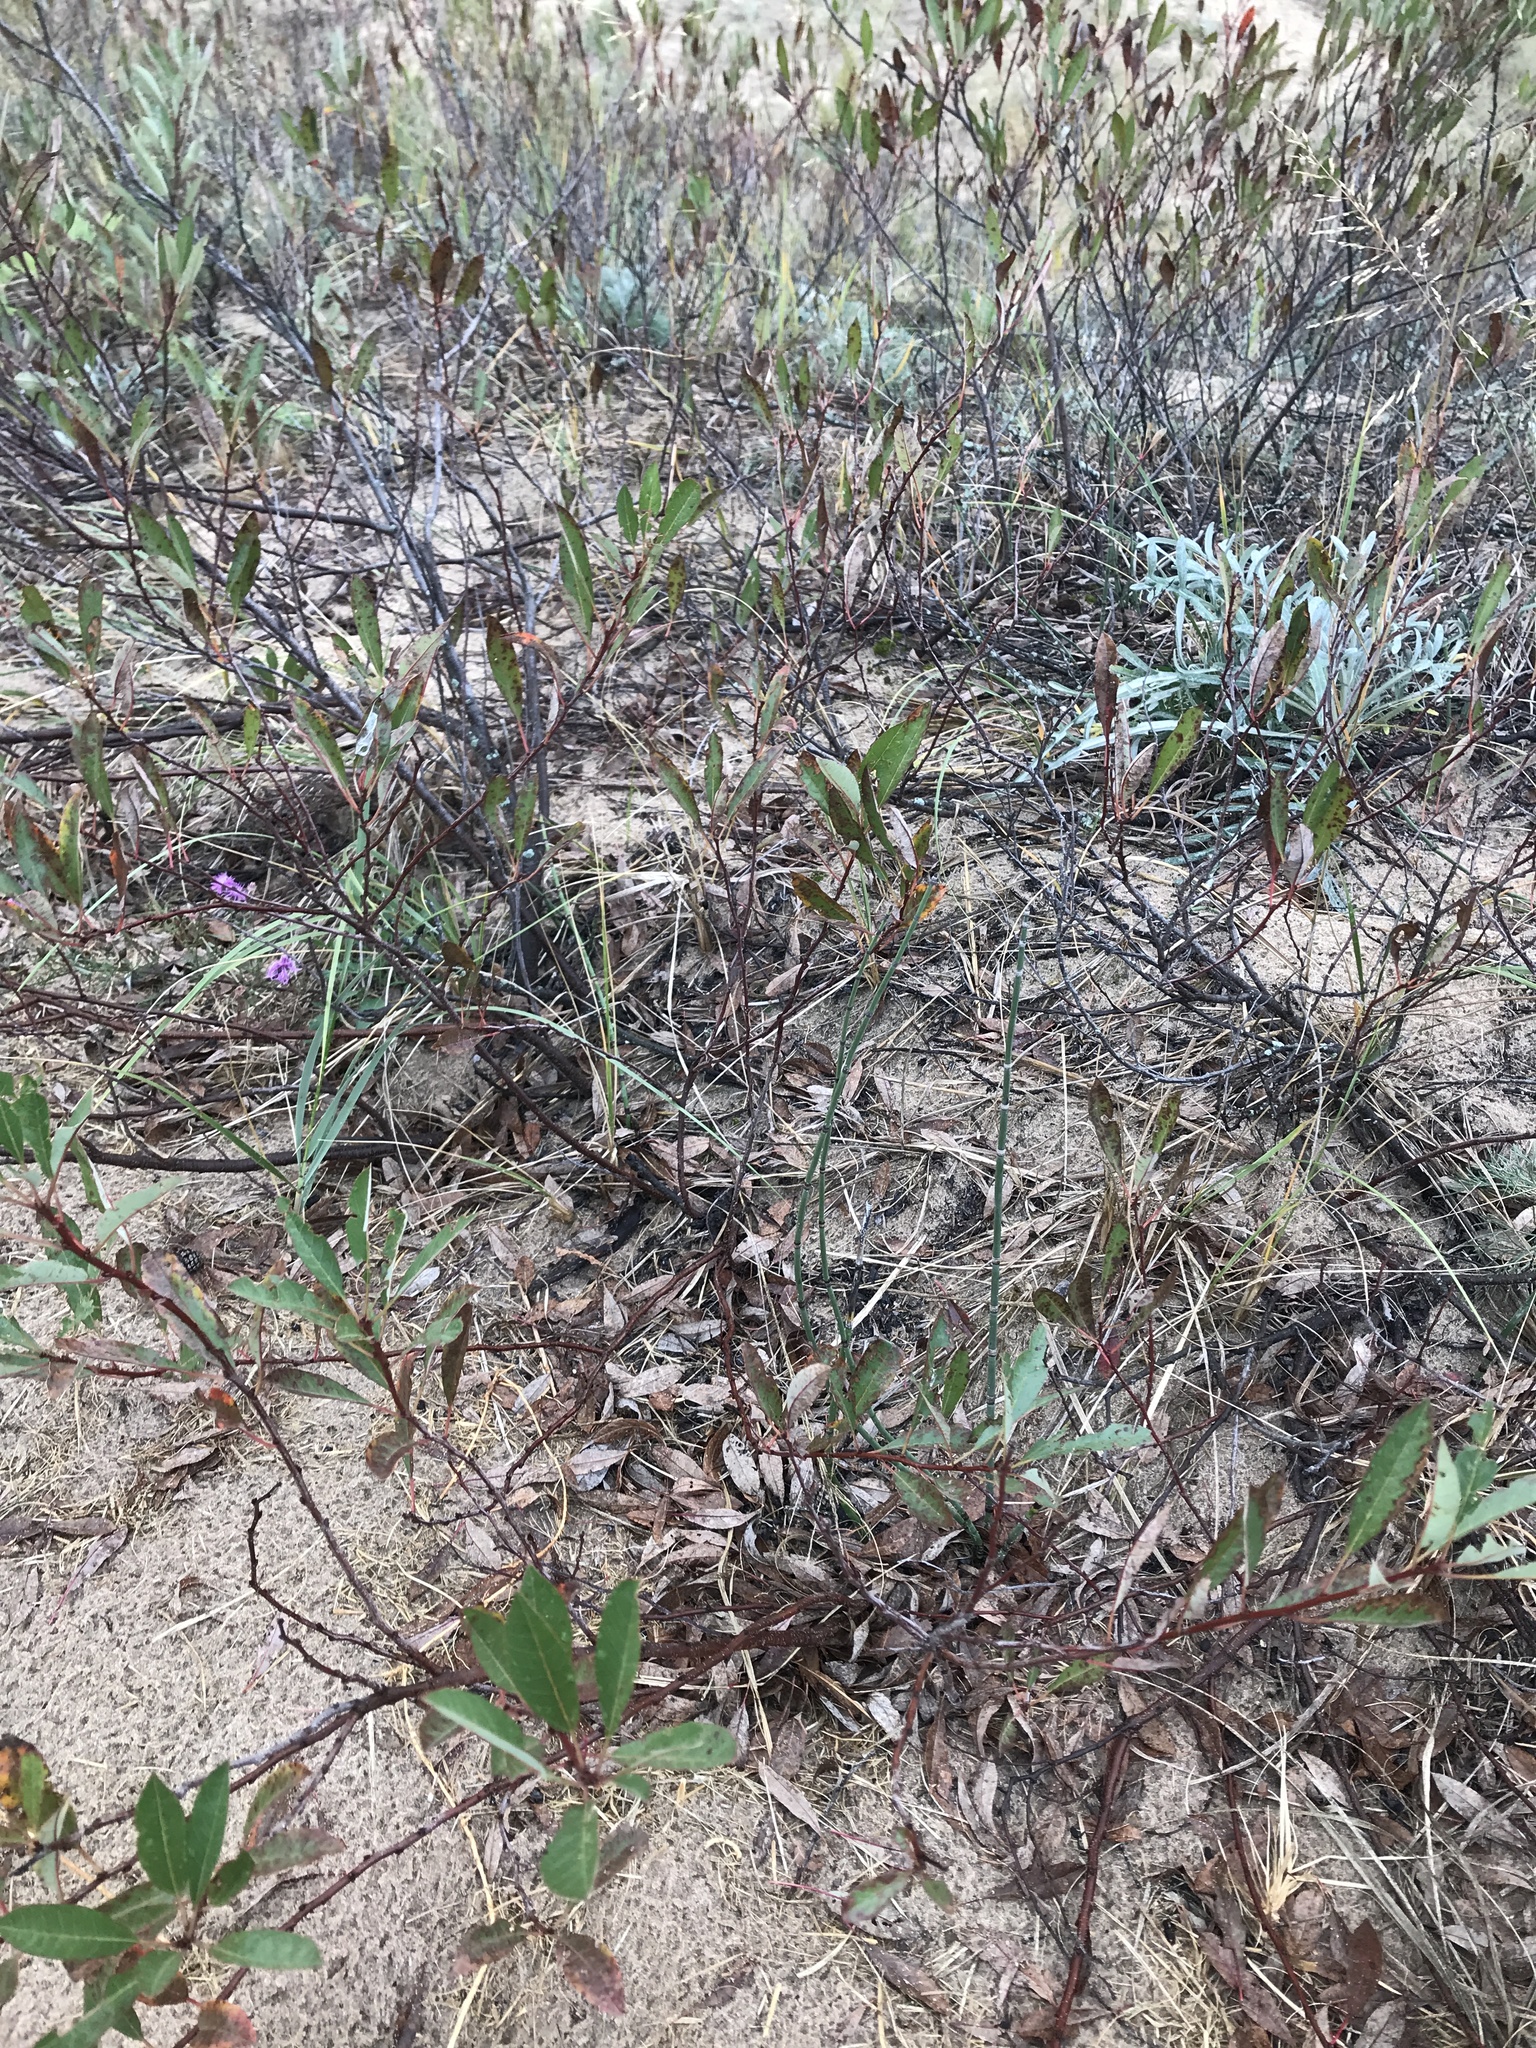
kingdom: Plantae
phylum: Tracheophyta
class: Magnoliopsida
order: Rosales
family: Rosaceae
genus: Prunus
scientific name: Prunus pumila
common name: Dwarf cherry
